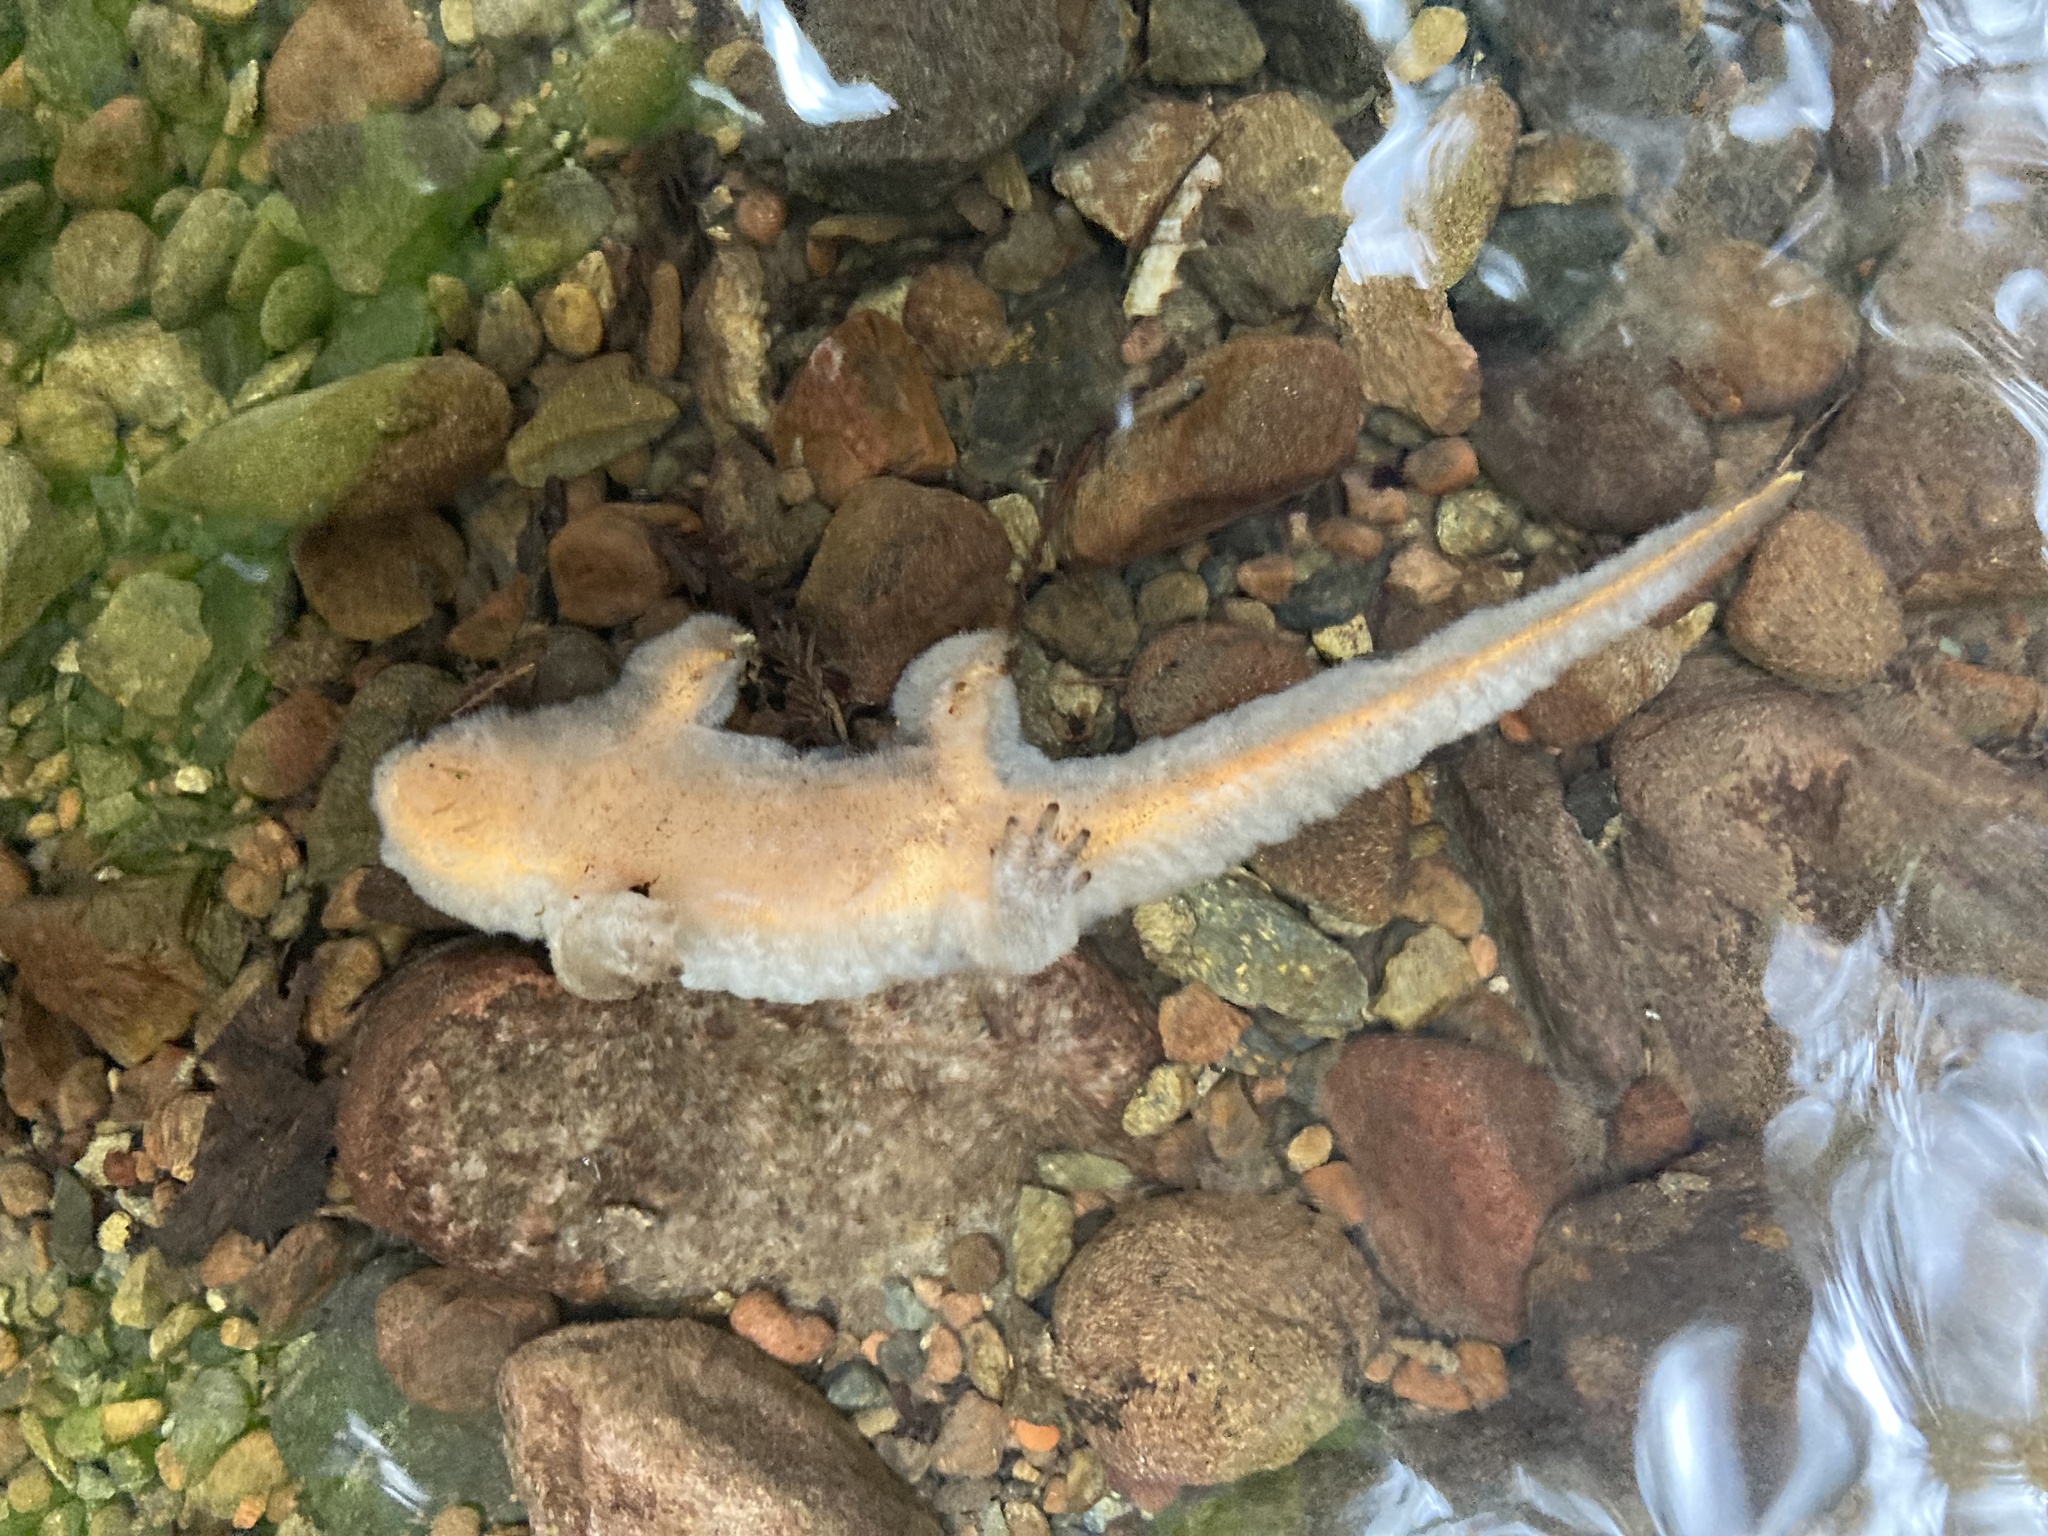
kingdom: Animalia
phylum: Chordata
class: Amphibia
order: Caudata
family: Salamandridae
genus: Taricha
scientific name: Taricha
